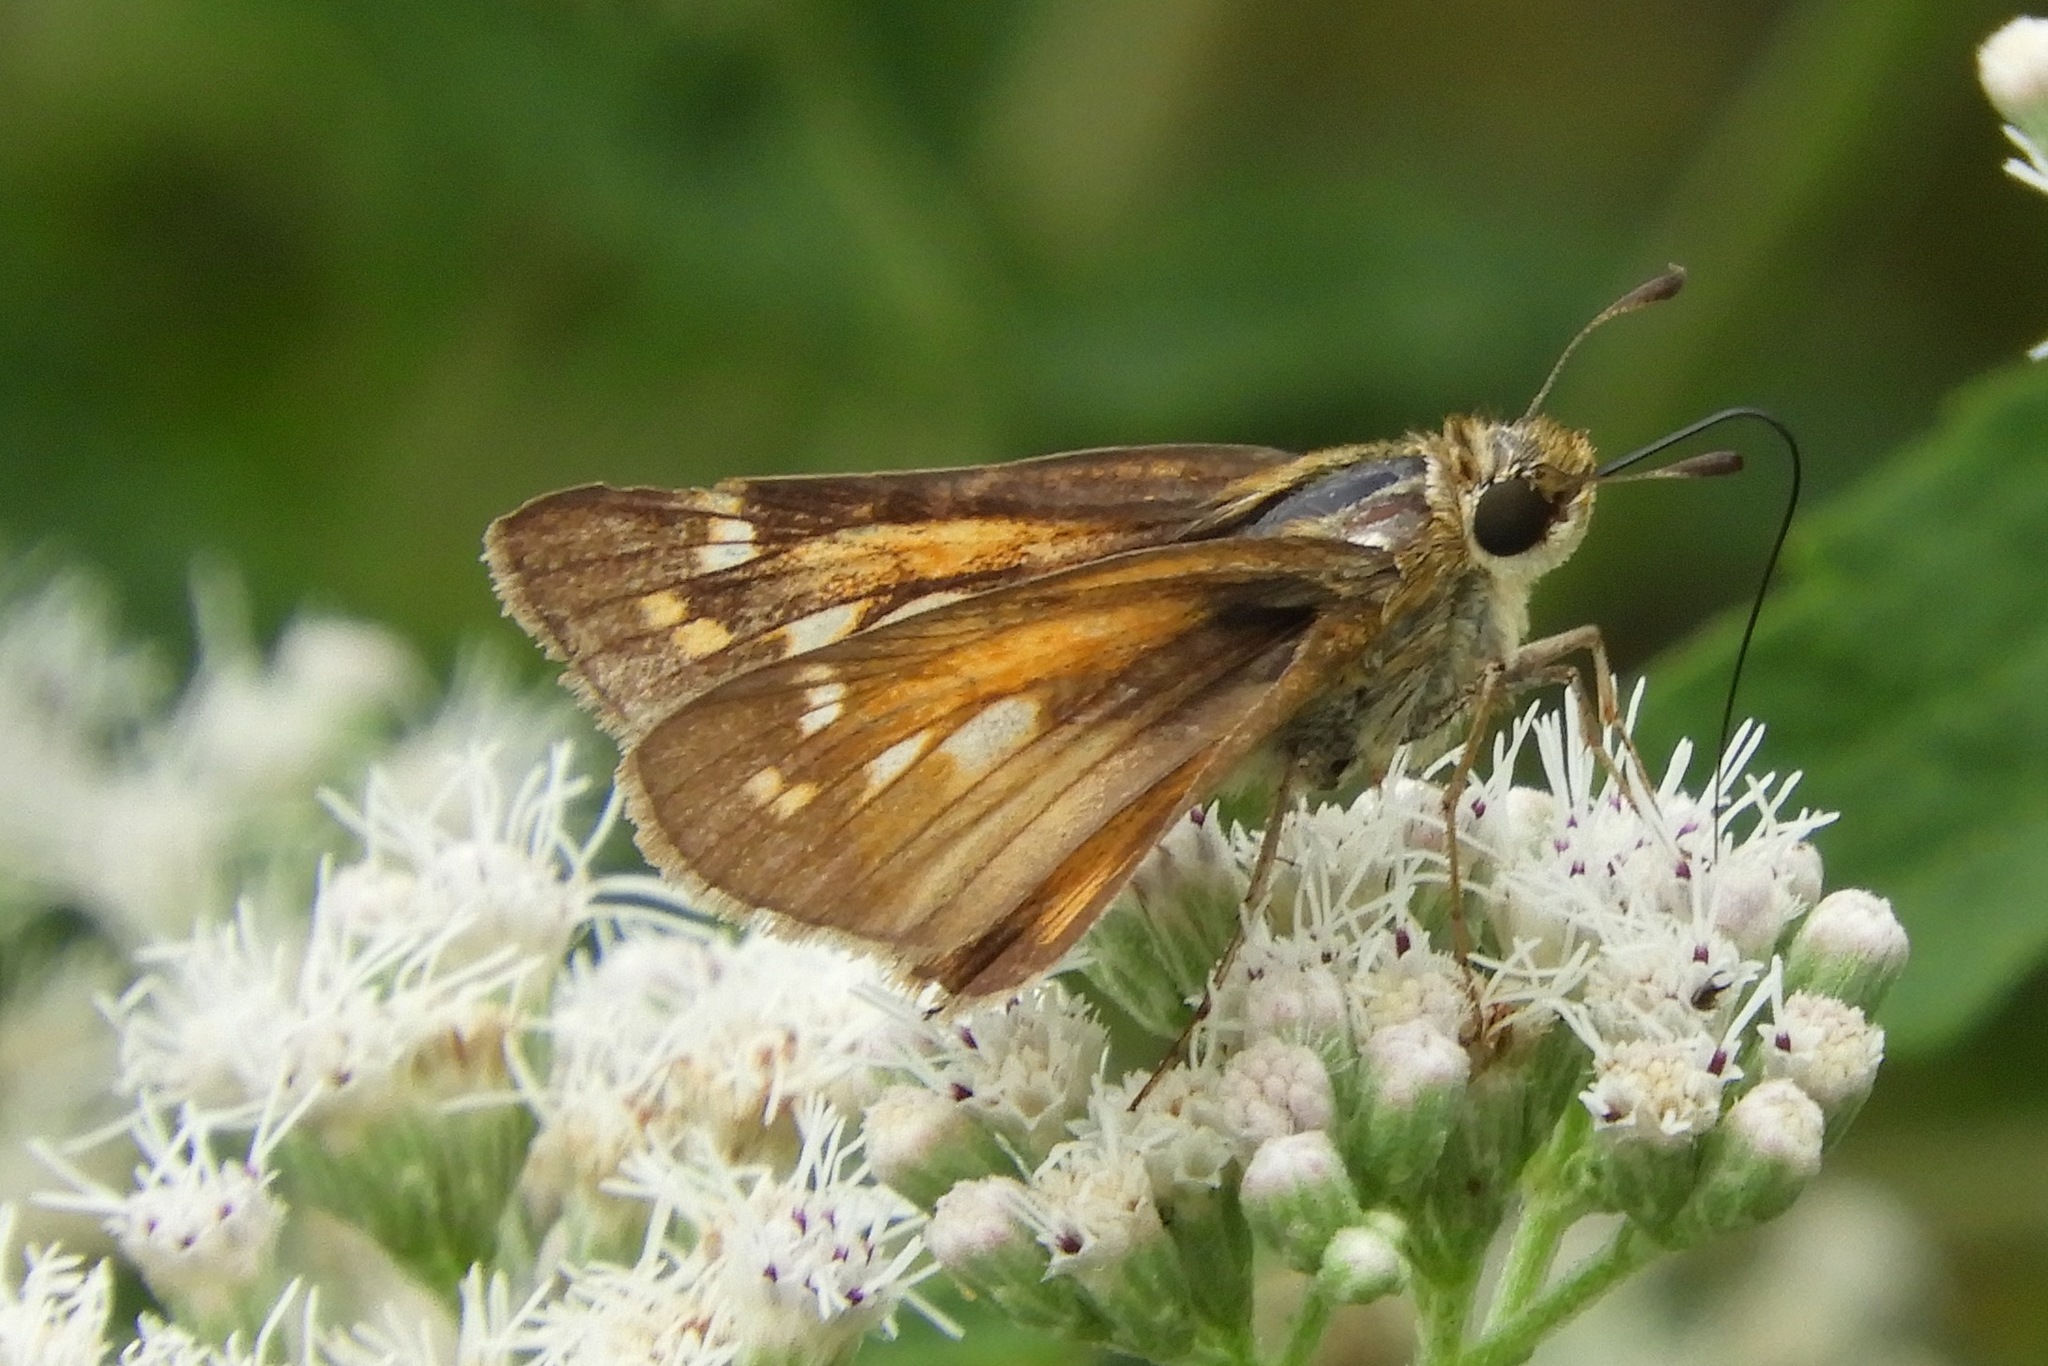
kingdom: Animalia
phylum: Arthropoda
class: Insecta
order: Lepidoptera
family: Hesperiidae
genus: Atalopedes
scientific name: Atalopedes
